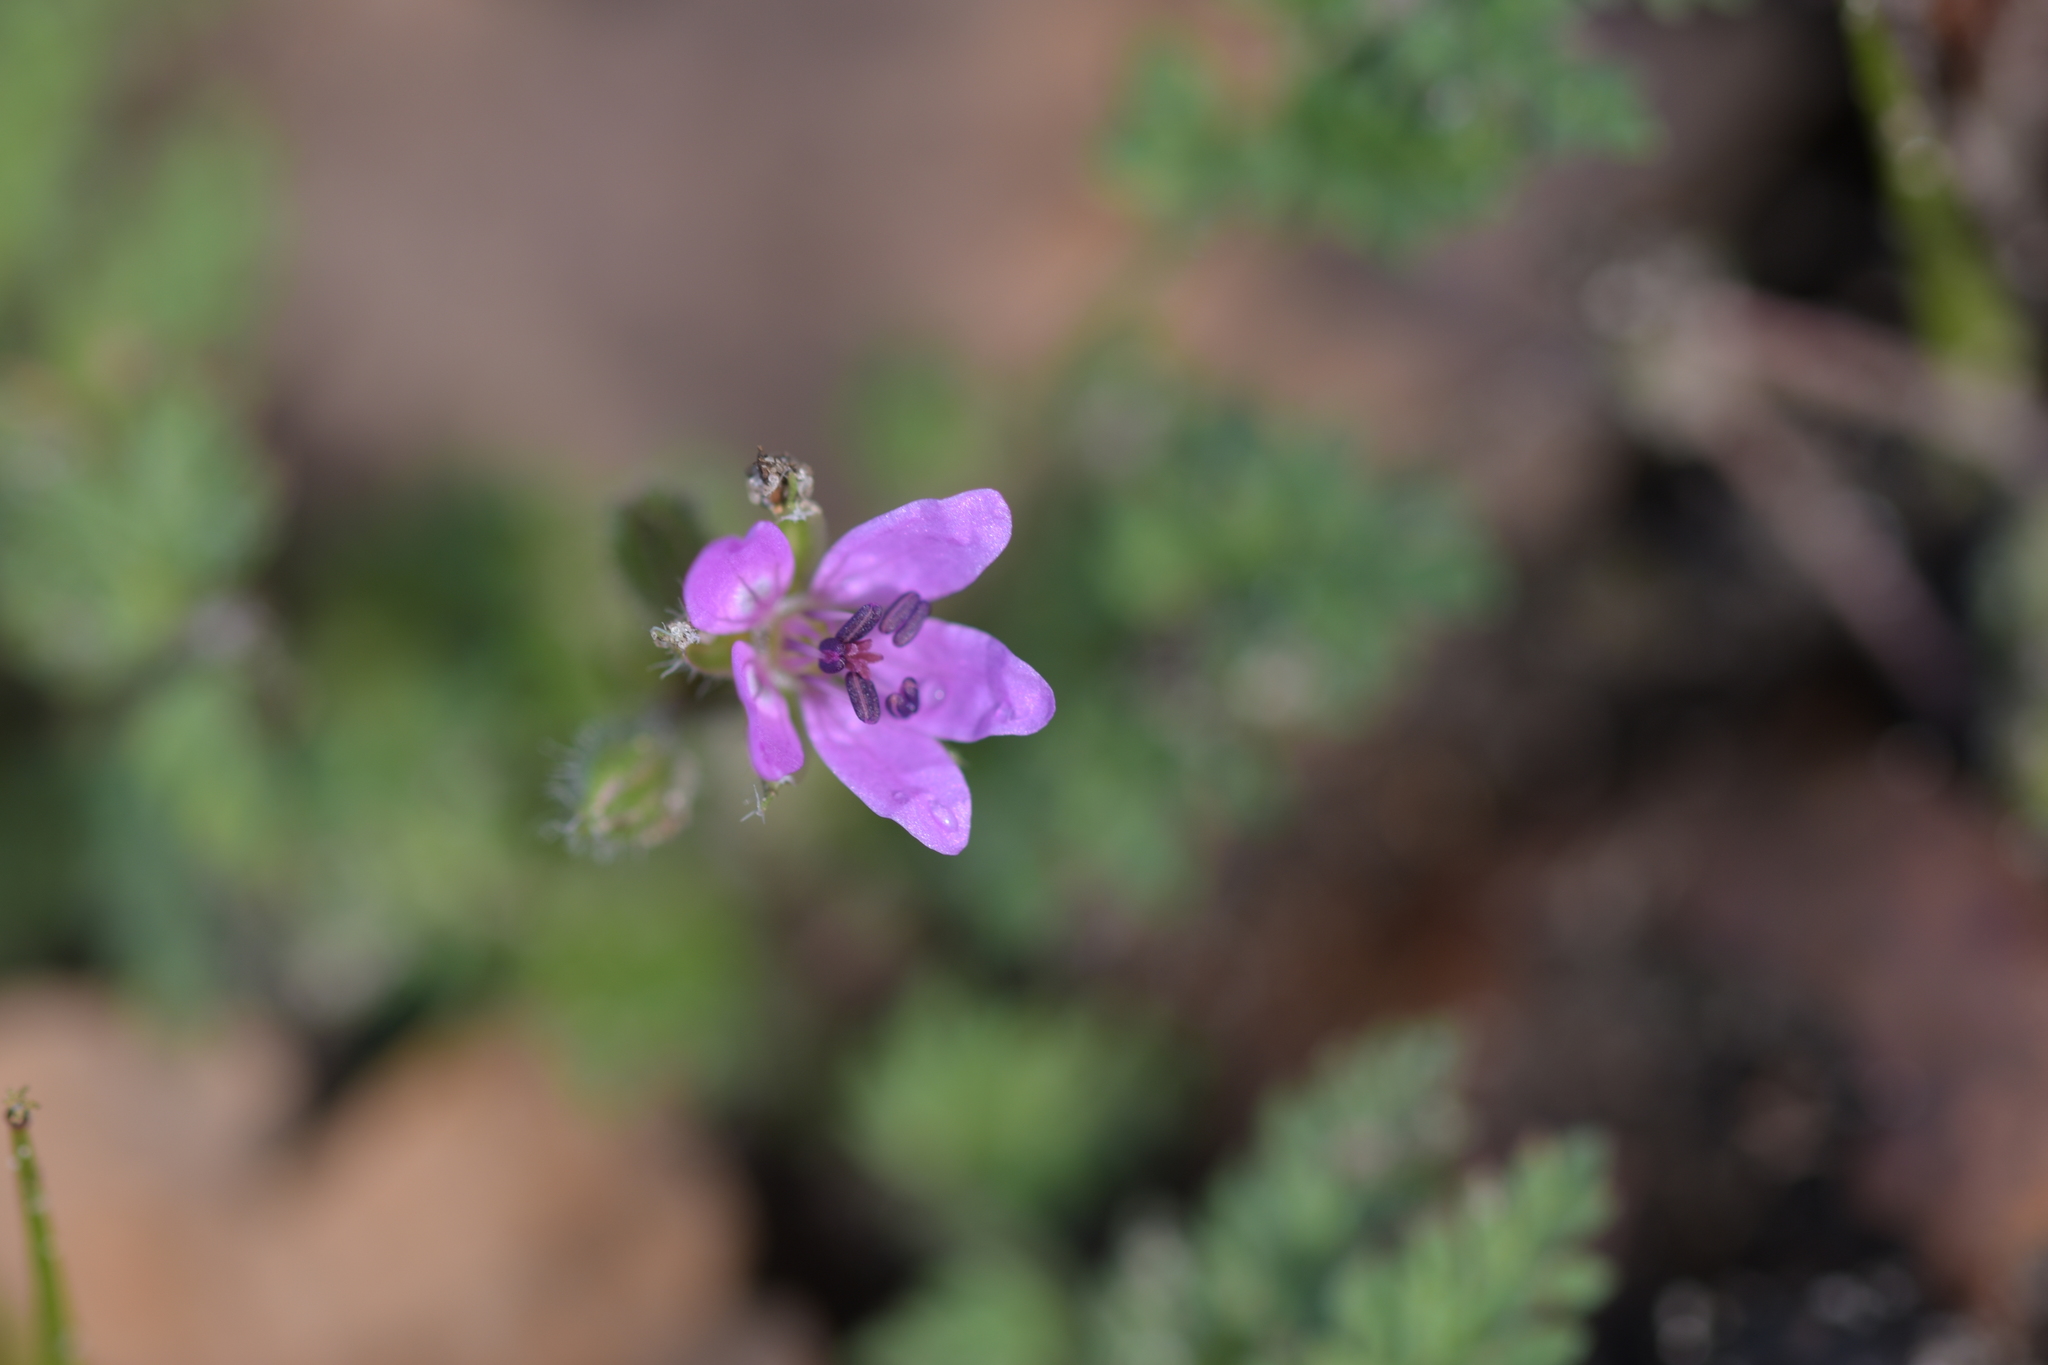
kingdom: Plantae
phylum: Tracheophyta
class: Magnoliopsida
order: Geraniales
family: Geraniaceae
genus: Erodium
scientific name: Erodium cicutarium
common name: Common stork's-bill
